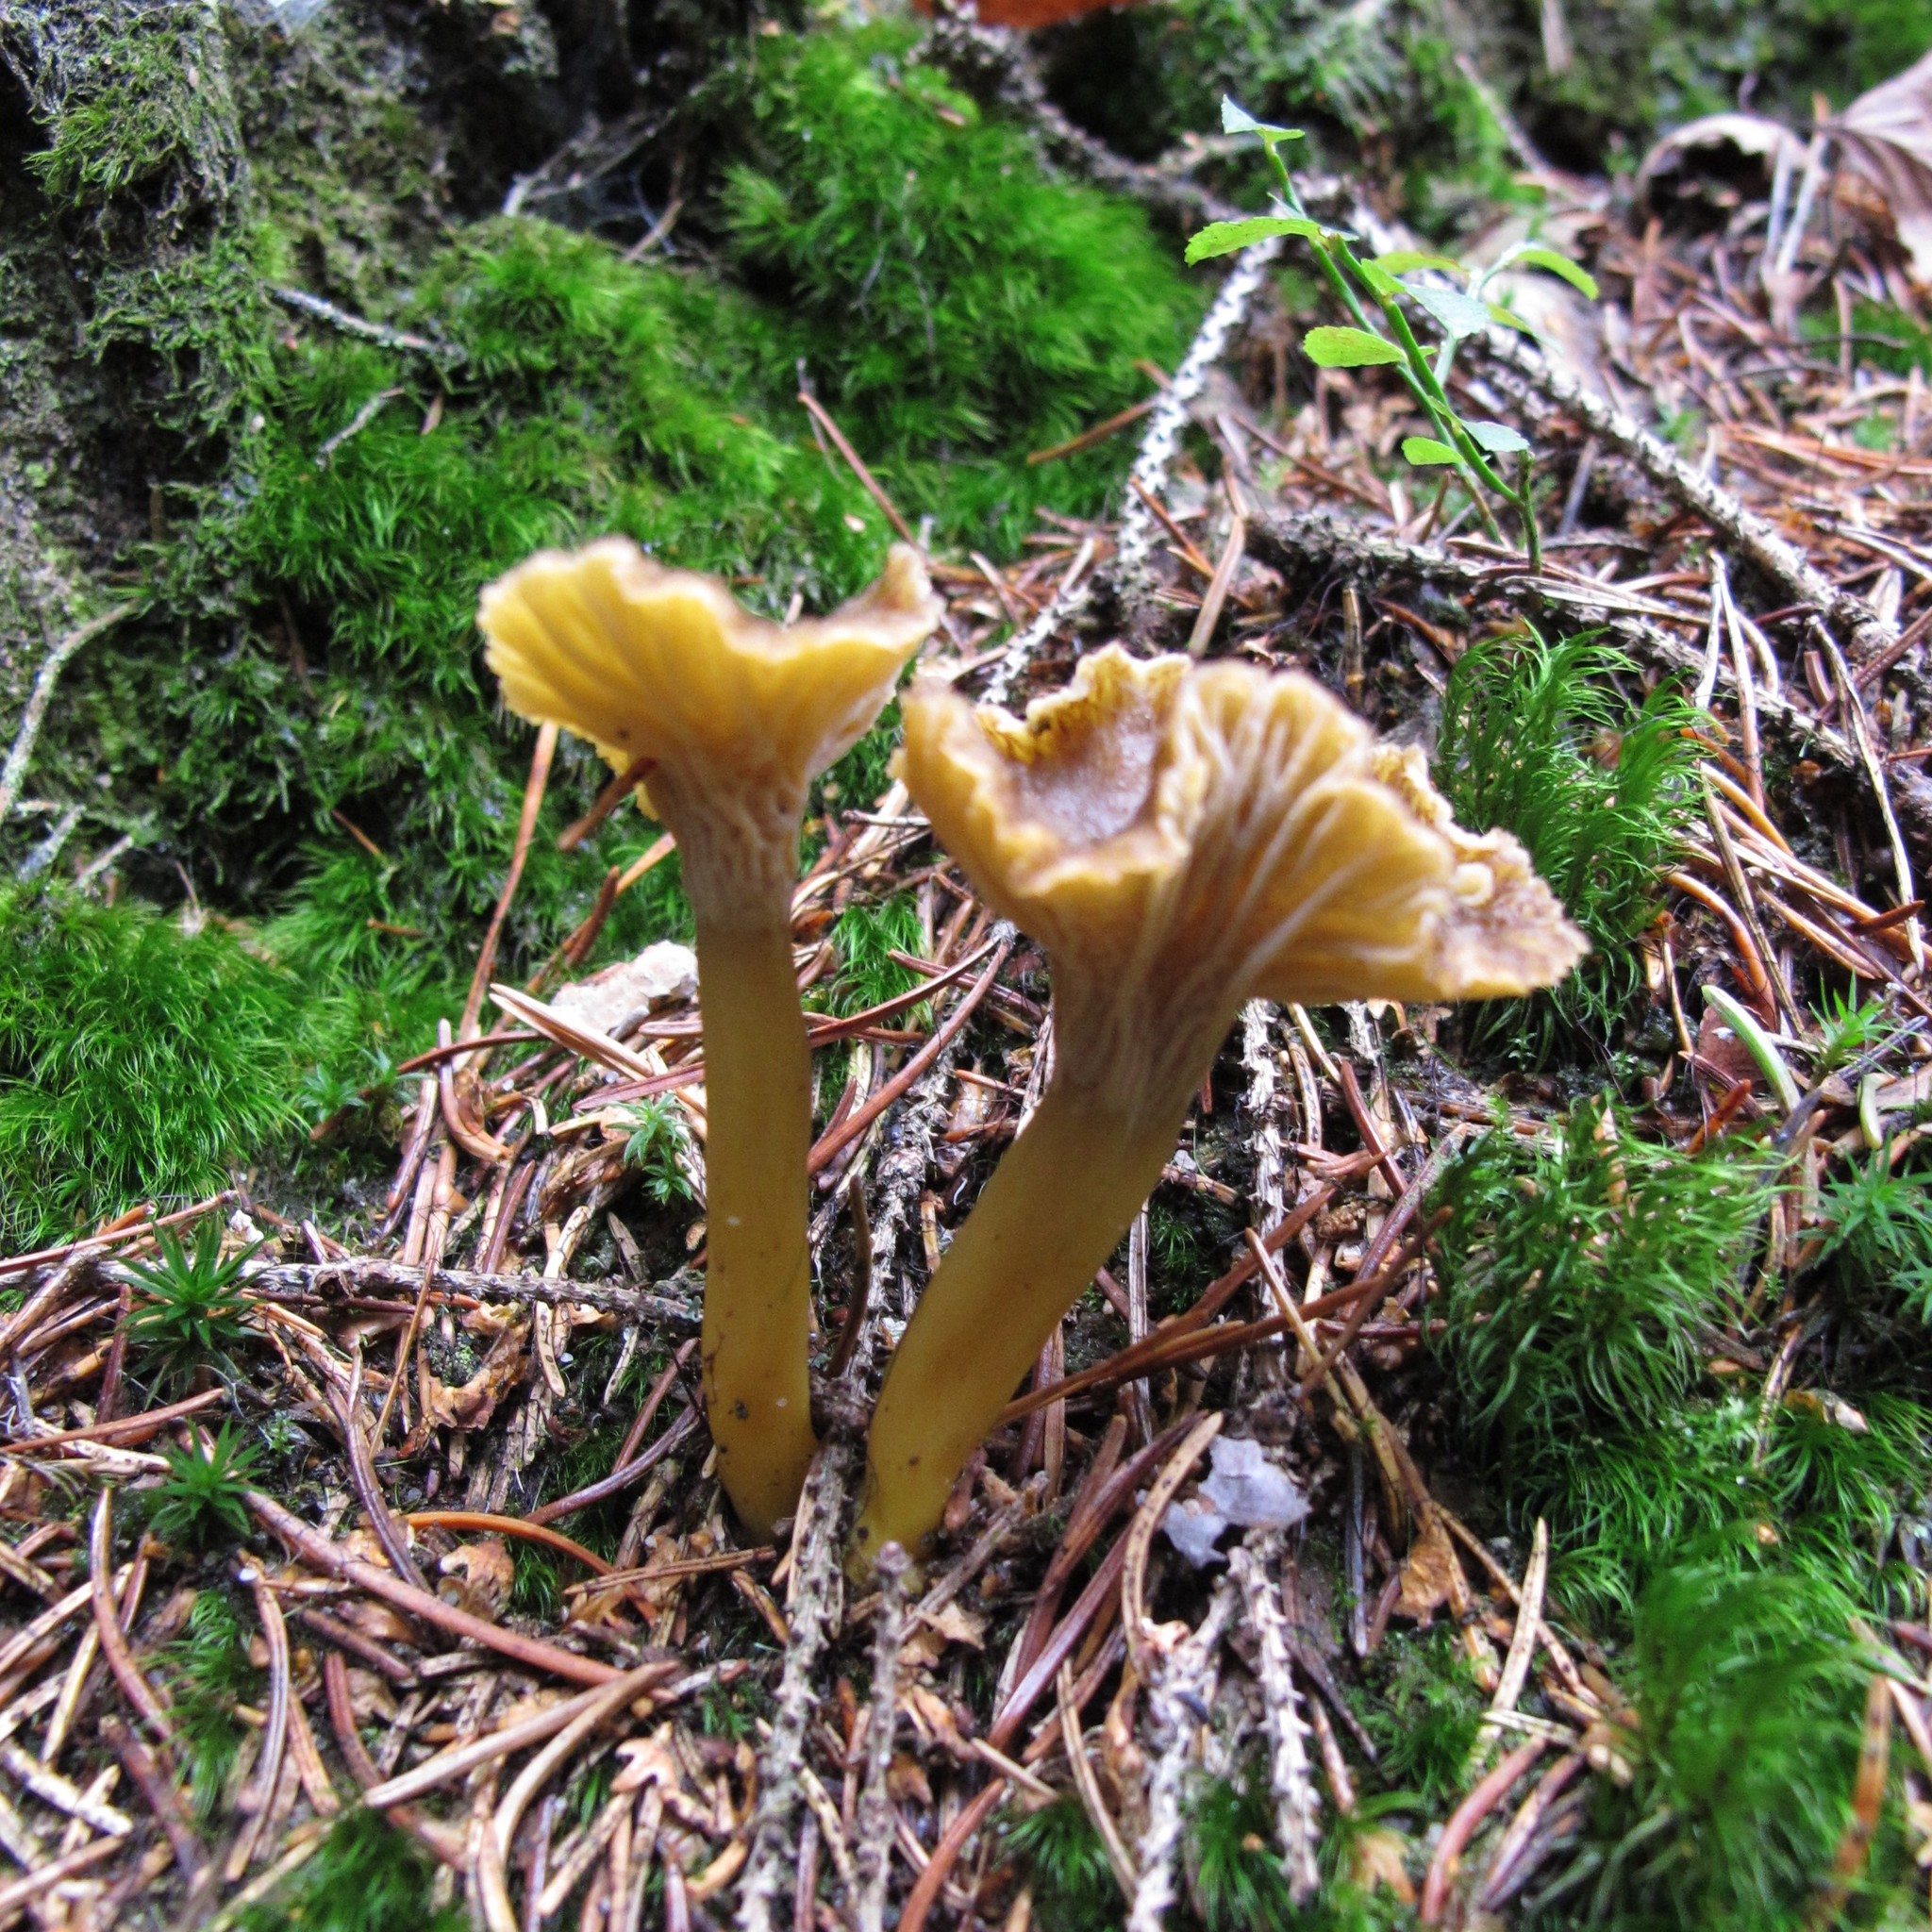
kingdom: Fungi
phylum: Basidiomycota
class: Agaricomycetes
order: Cantharellales
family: Hydnaceae
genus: Craterellus
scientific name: Craterellus tubaeformis
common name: Yellowfoot
